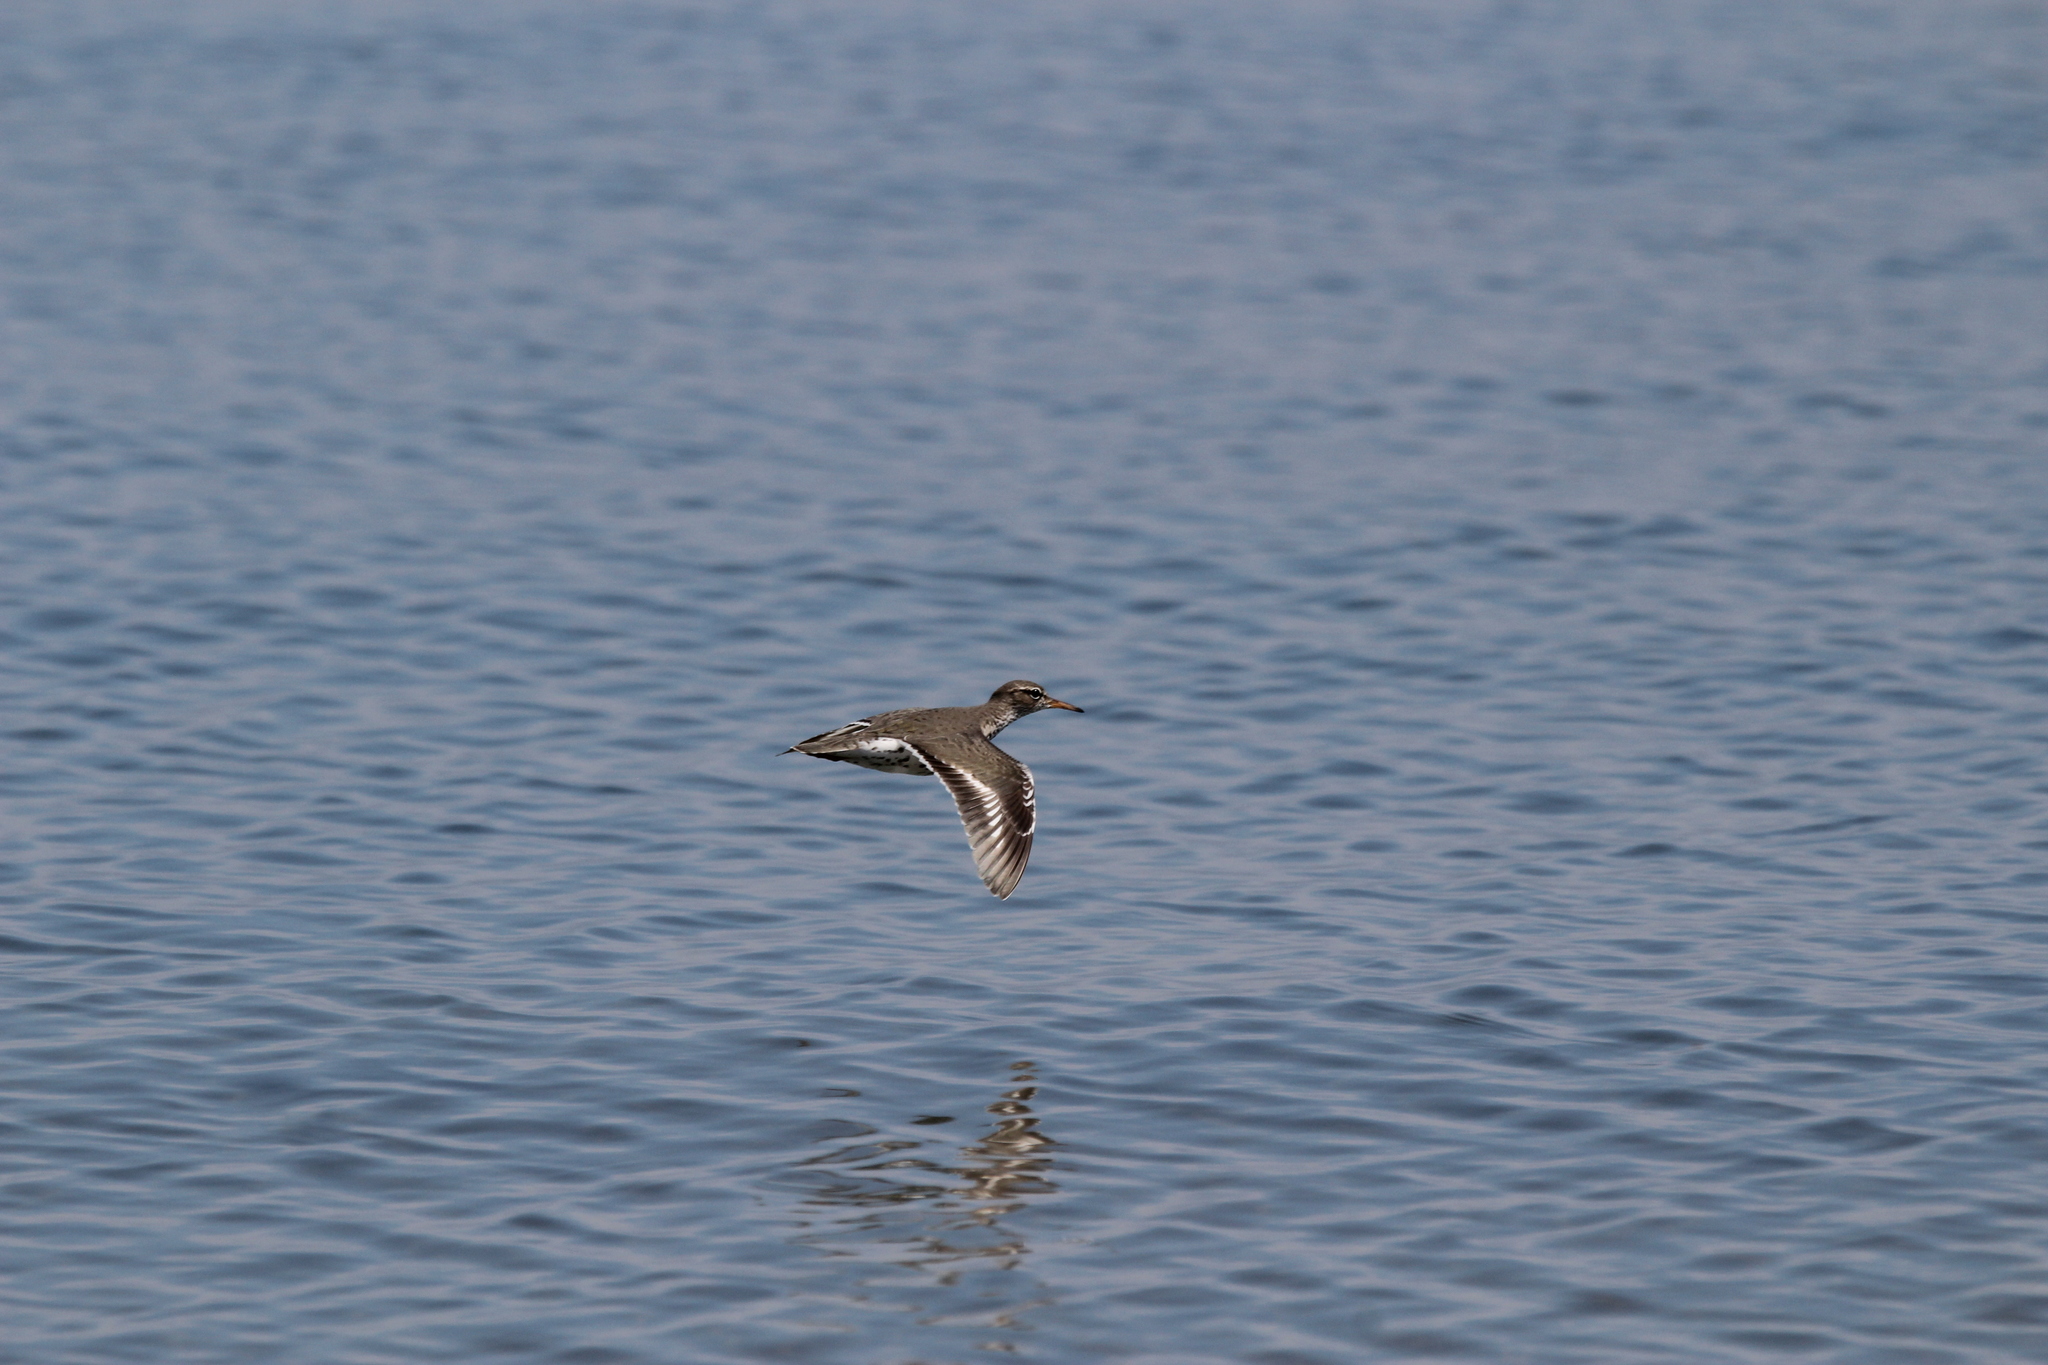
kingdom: Animalia
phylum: Chordata
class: Aves
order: Charadriiformes
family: Scolopacidae
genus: Actitis
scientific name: Actitis macularius
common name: Spotted sandpiper
